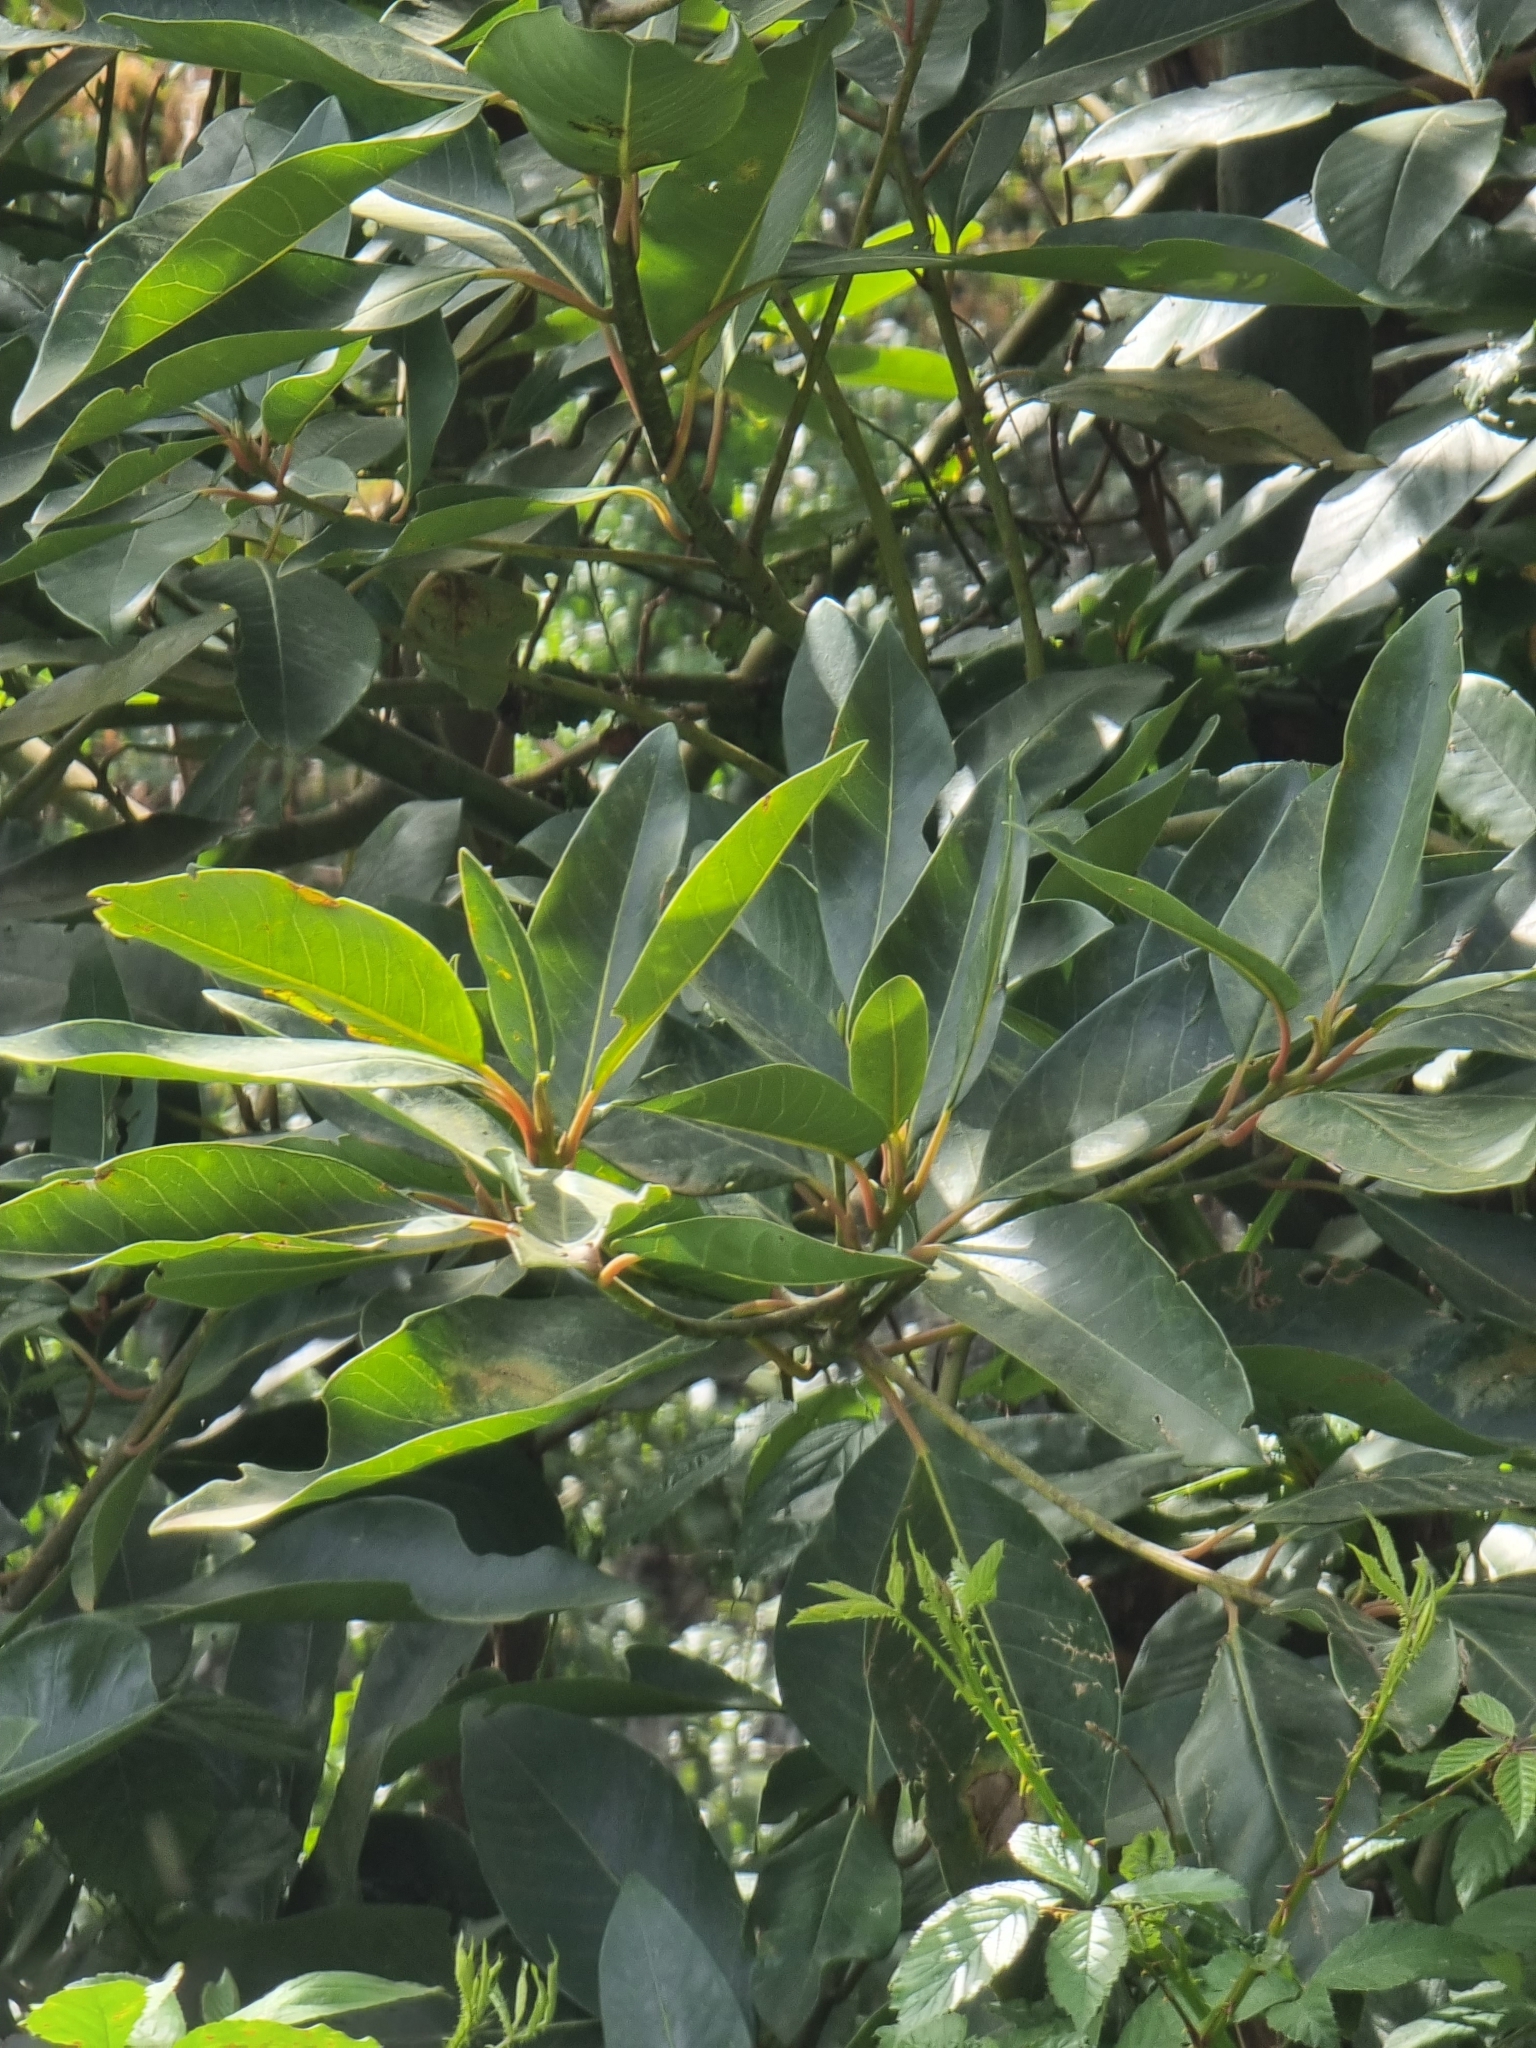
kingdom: Plantae
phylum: Tracheophyta
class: Magnoliopsida
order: Laurales
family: Lauraceae
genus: Persea
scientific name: Persea indica
